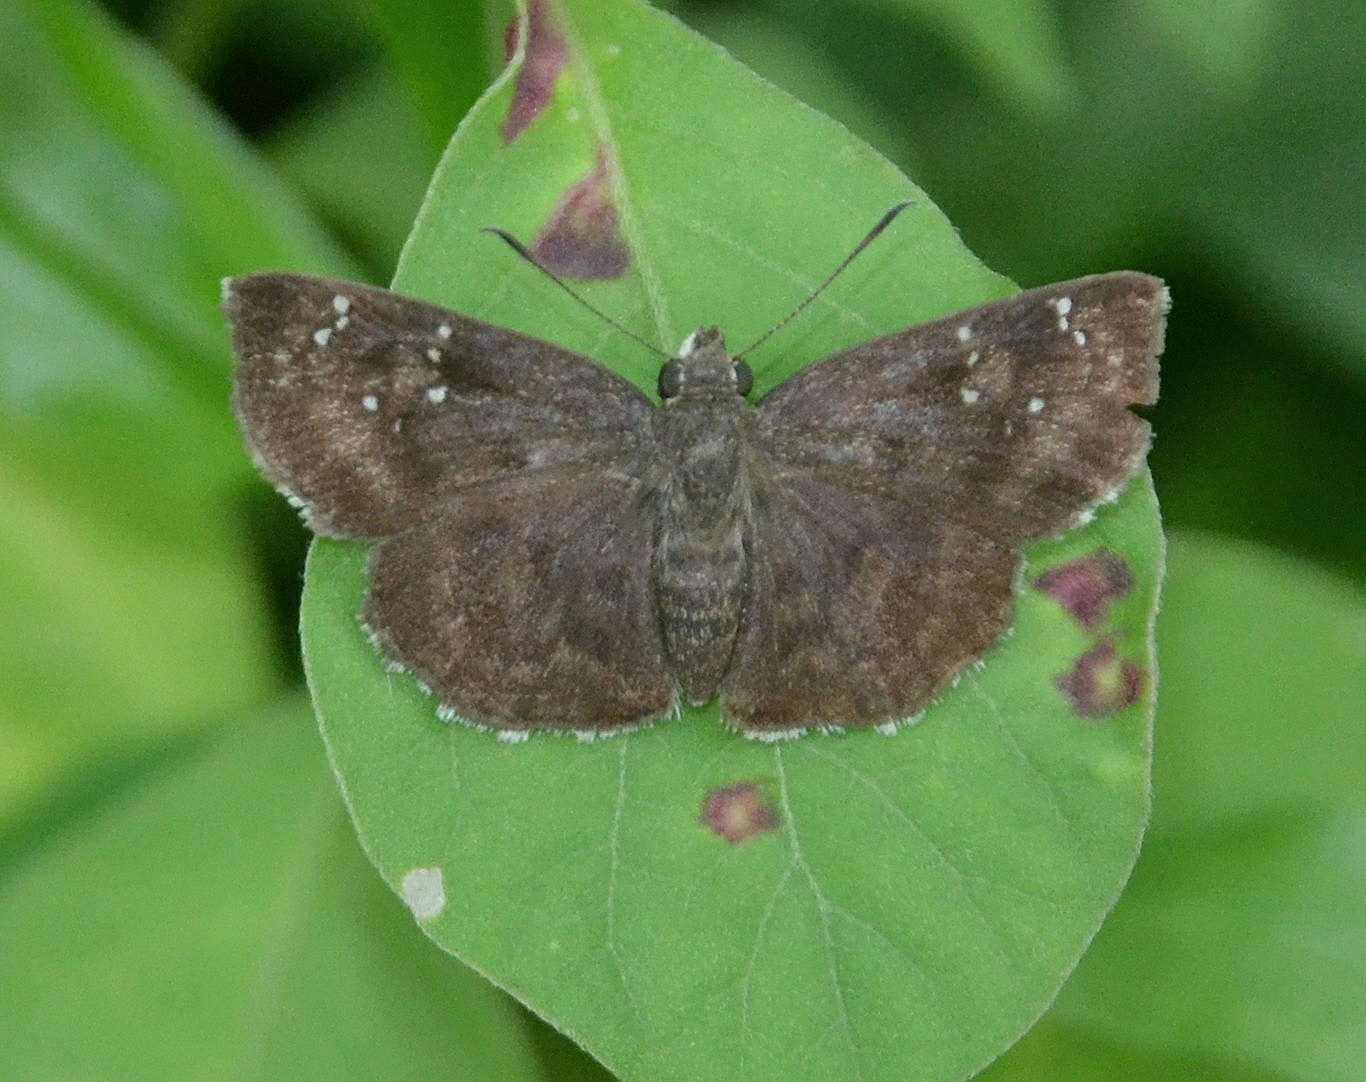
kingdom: Animalia
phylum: Arthropoda
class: Insecta
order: Lepidoptera
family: Hesperiidae
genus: Sarangesa
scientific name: Sarangesa dasahara
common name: Common small flat
